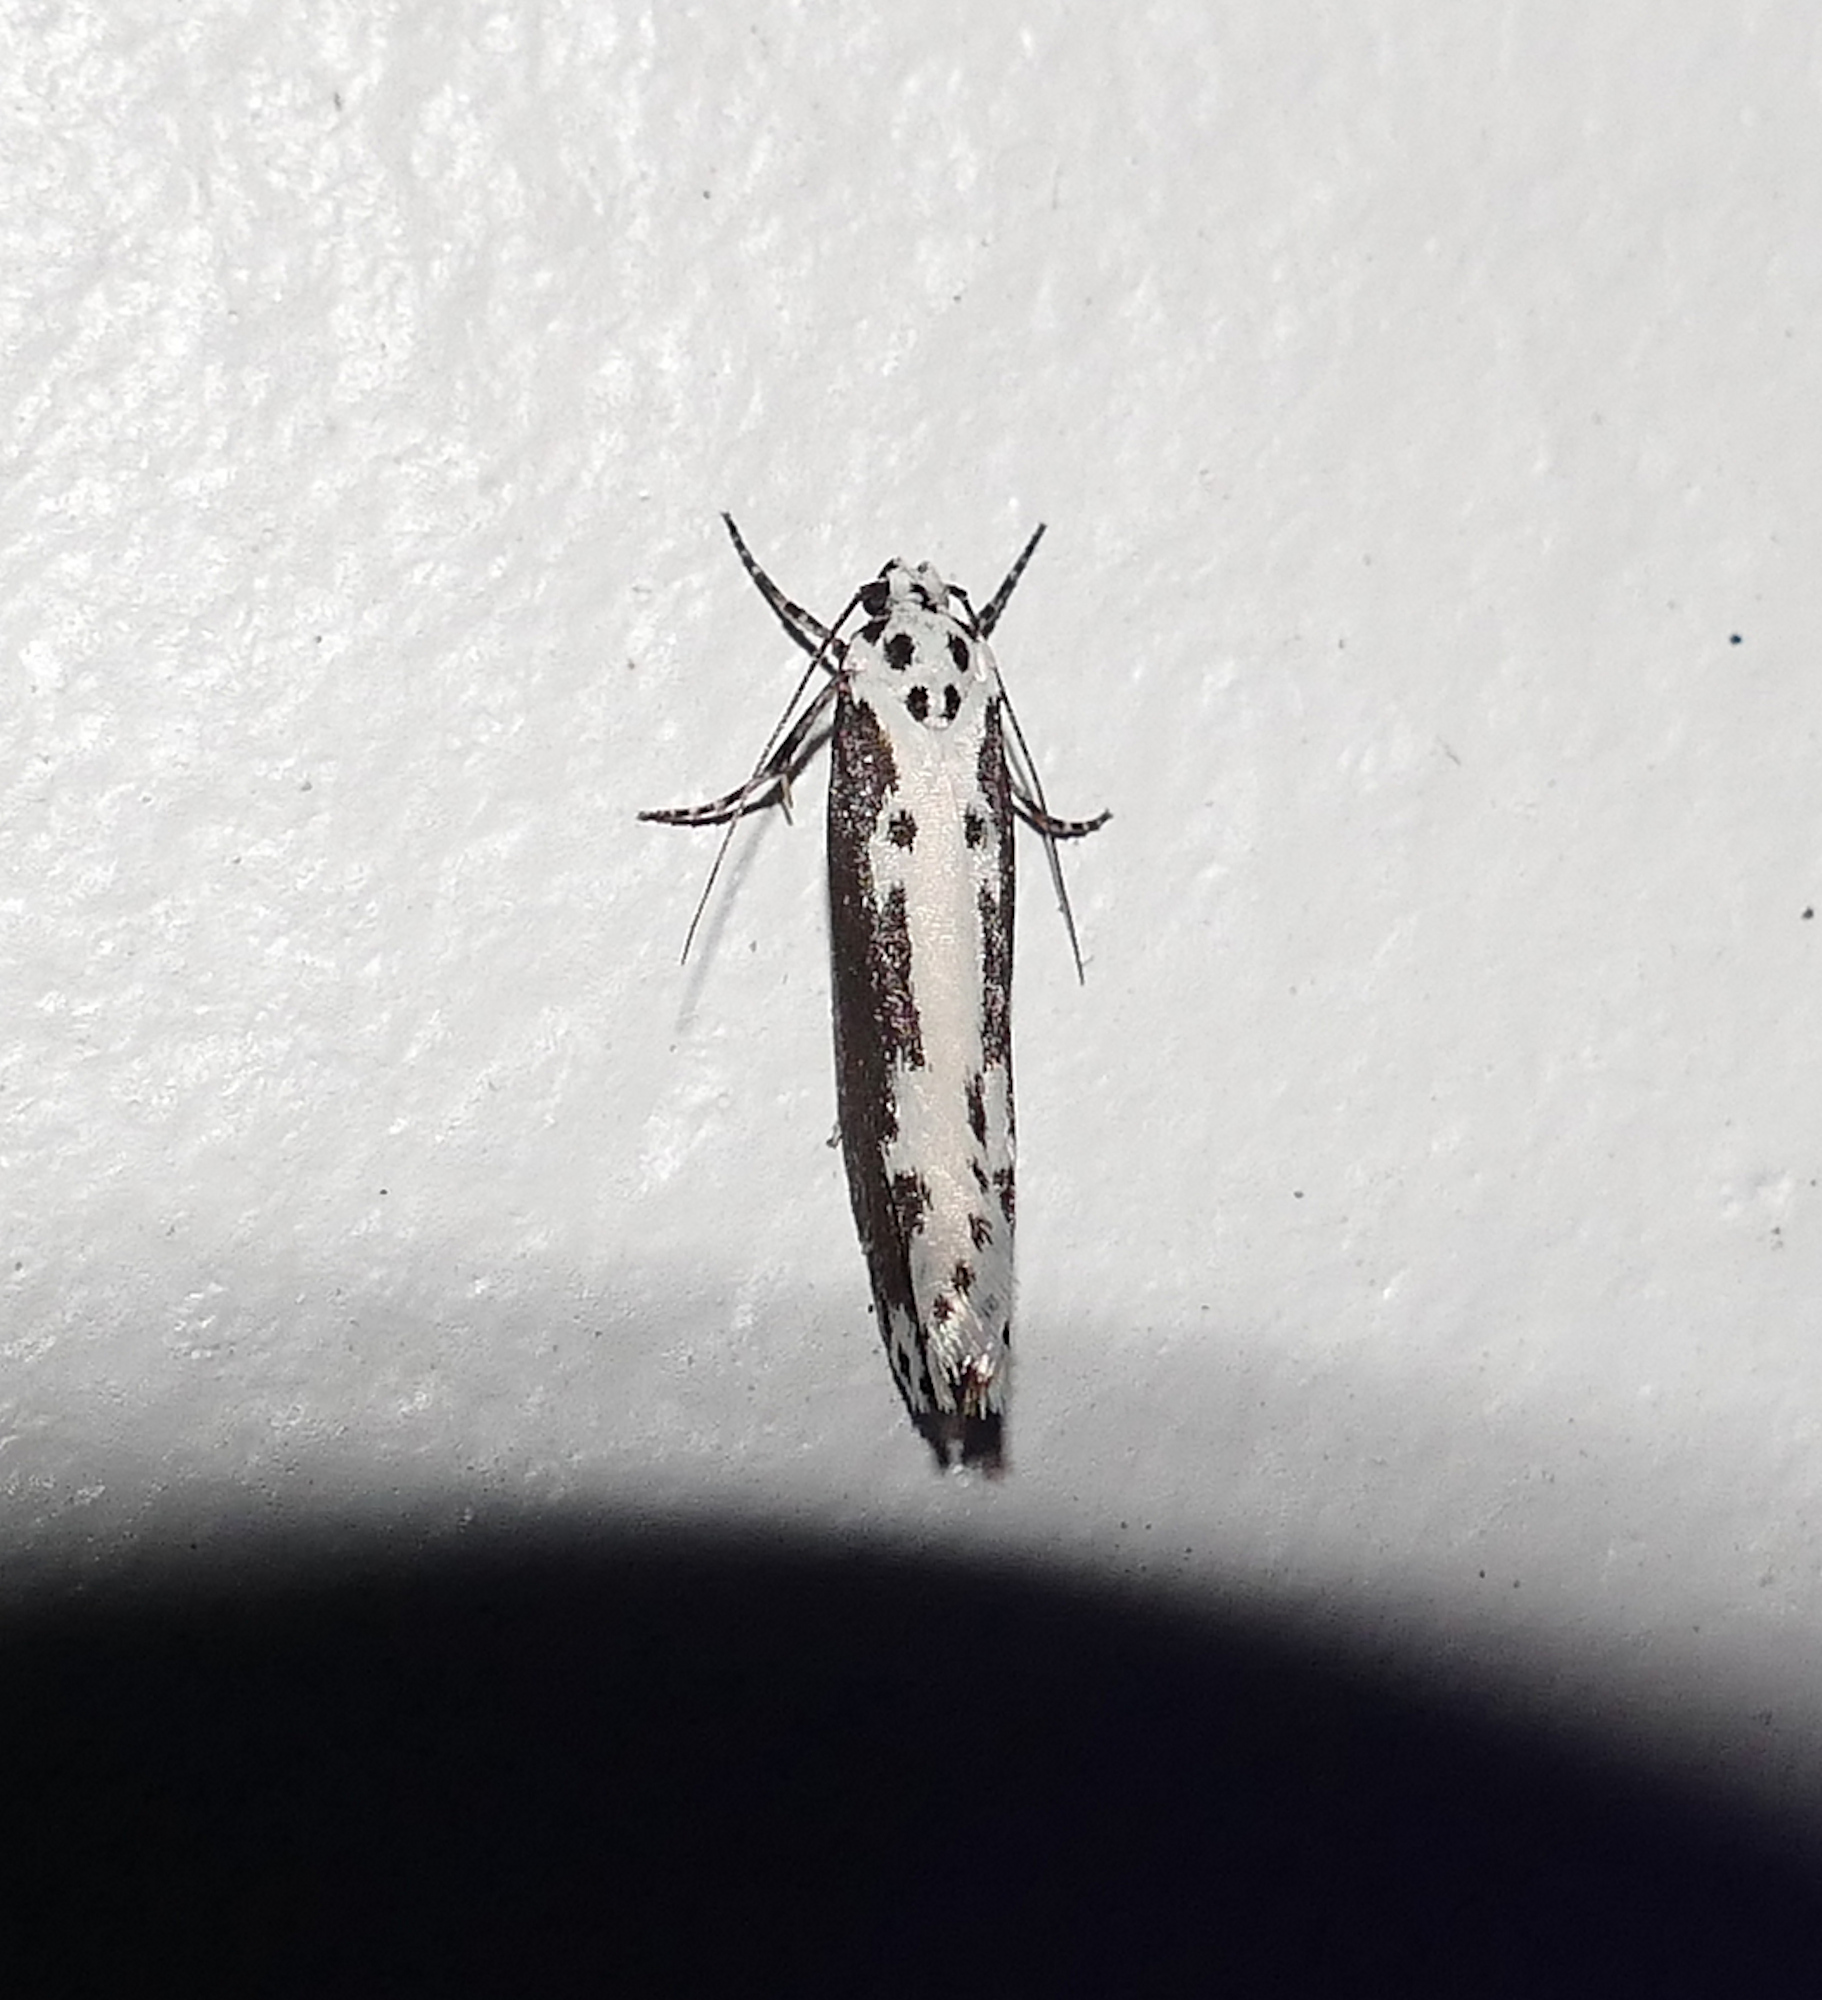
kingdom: Animalia
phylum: Arthropoda
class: Insecta
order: Lepidoptera
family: Ethmiidae
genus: Ethmia
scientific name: Ethmia semilugens
